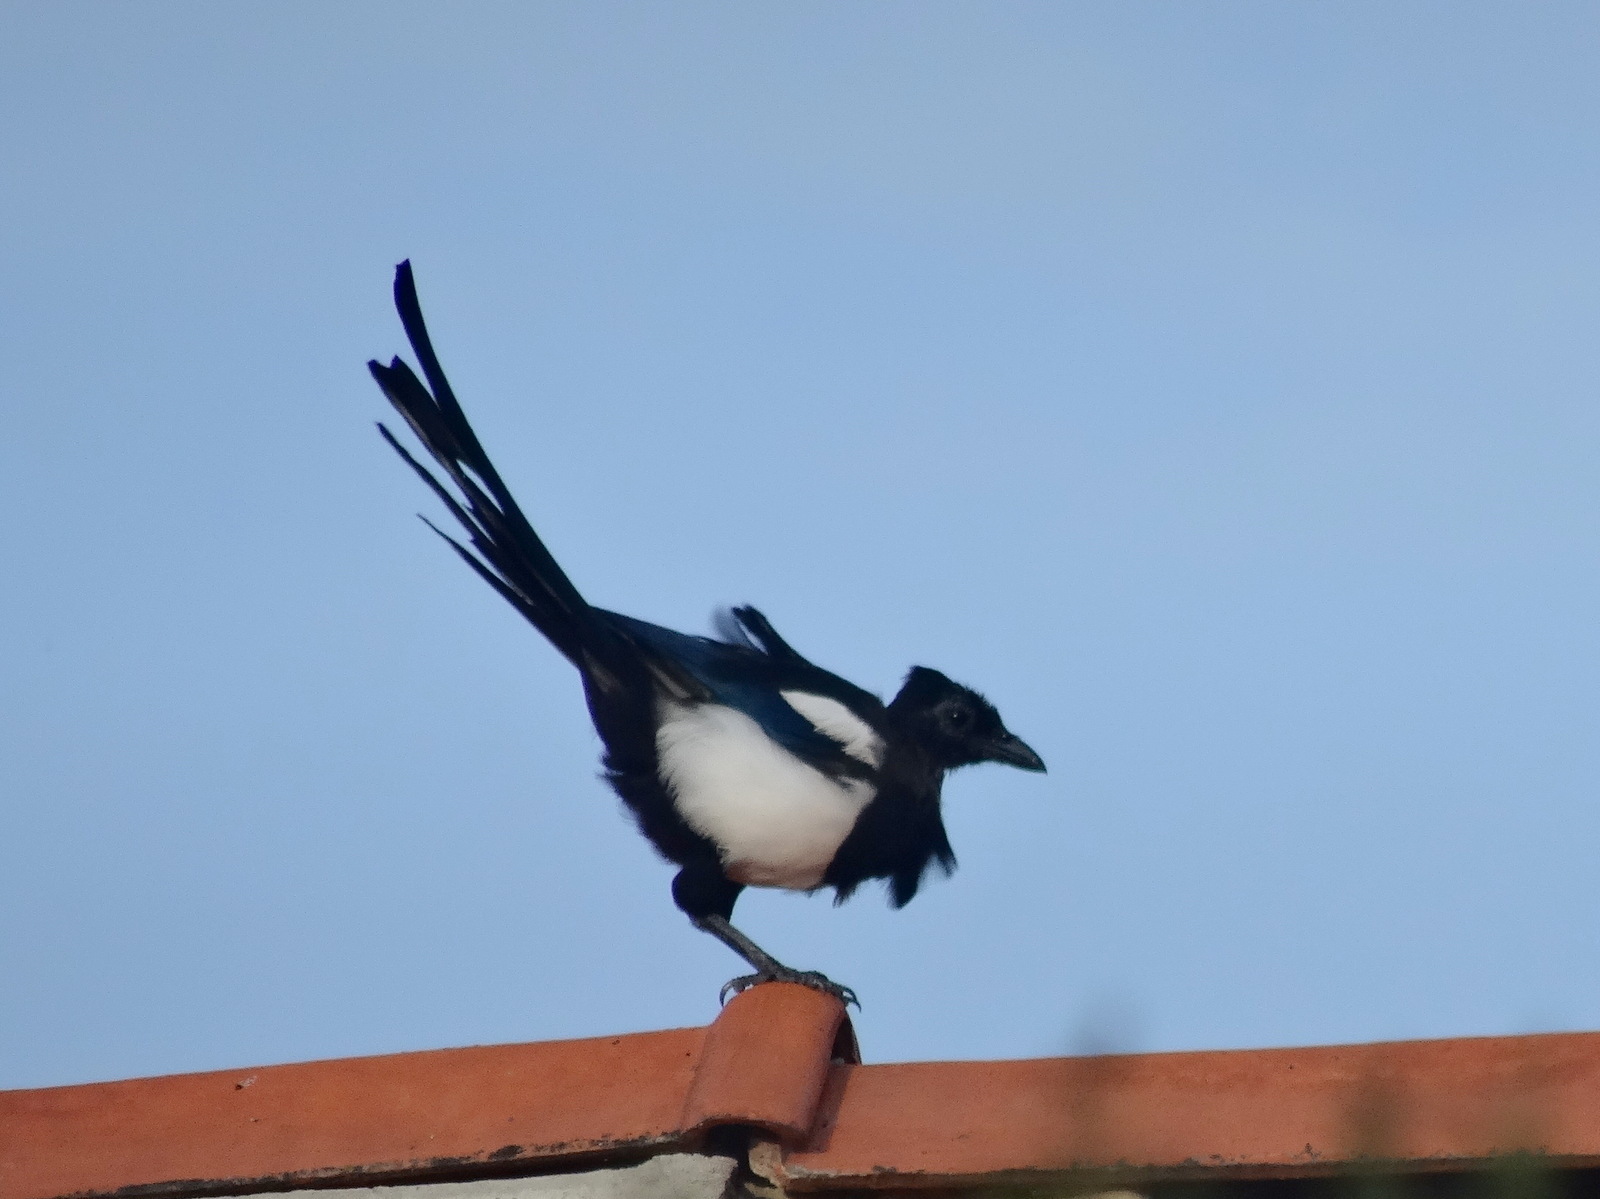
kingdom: Animalia
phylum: Chordata
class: Aves
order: Passeriformes
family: Corvidae
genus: Pica
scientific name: Pica pica
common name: Eurasian magpie
